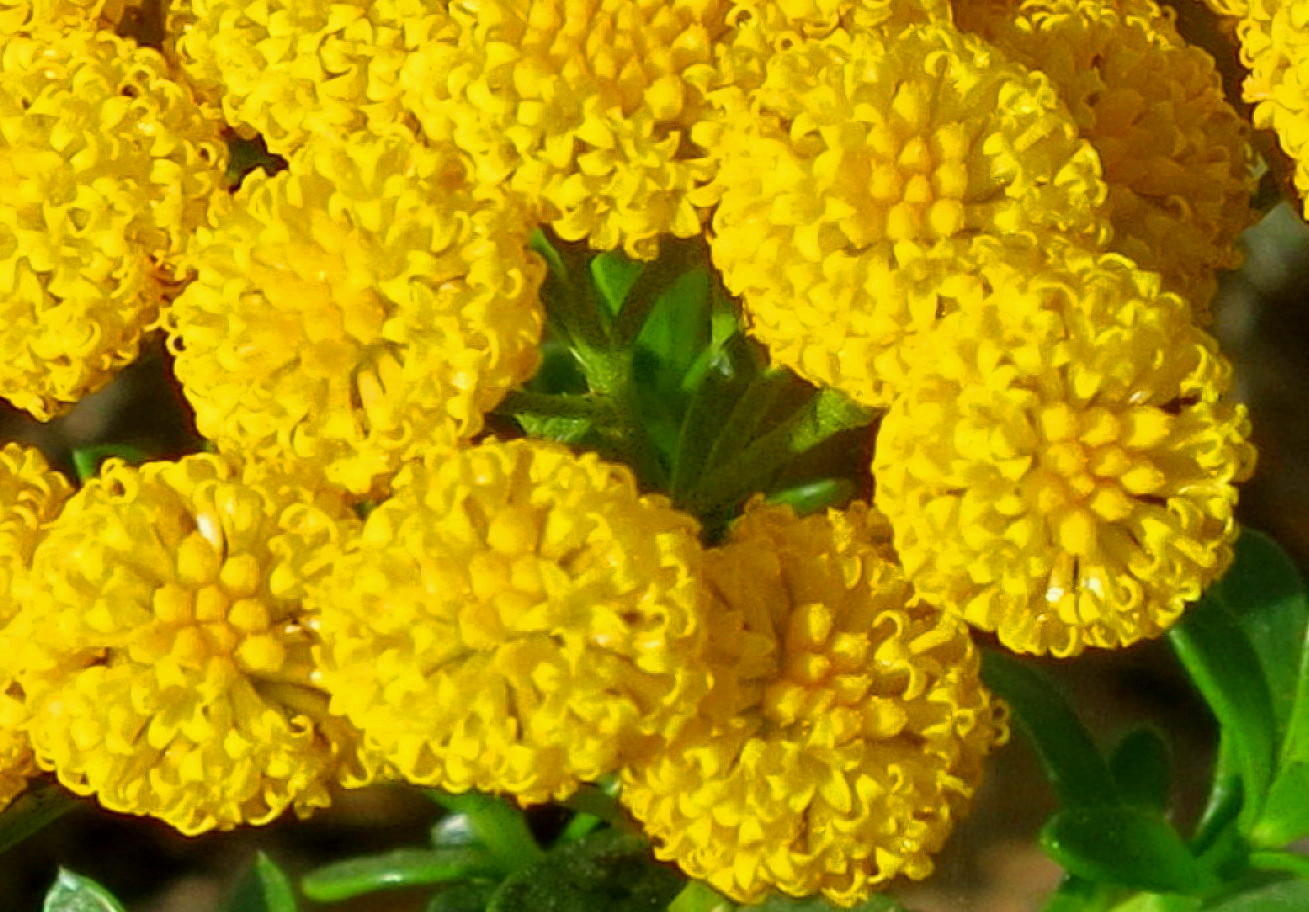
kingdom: Plantae
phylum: Tracheophyta
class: Magnoliopsida
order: Asterales
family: Asteraceae
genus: Athanasia
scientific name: Athanasia trifurcata
